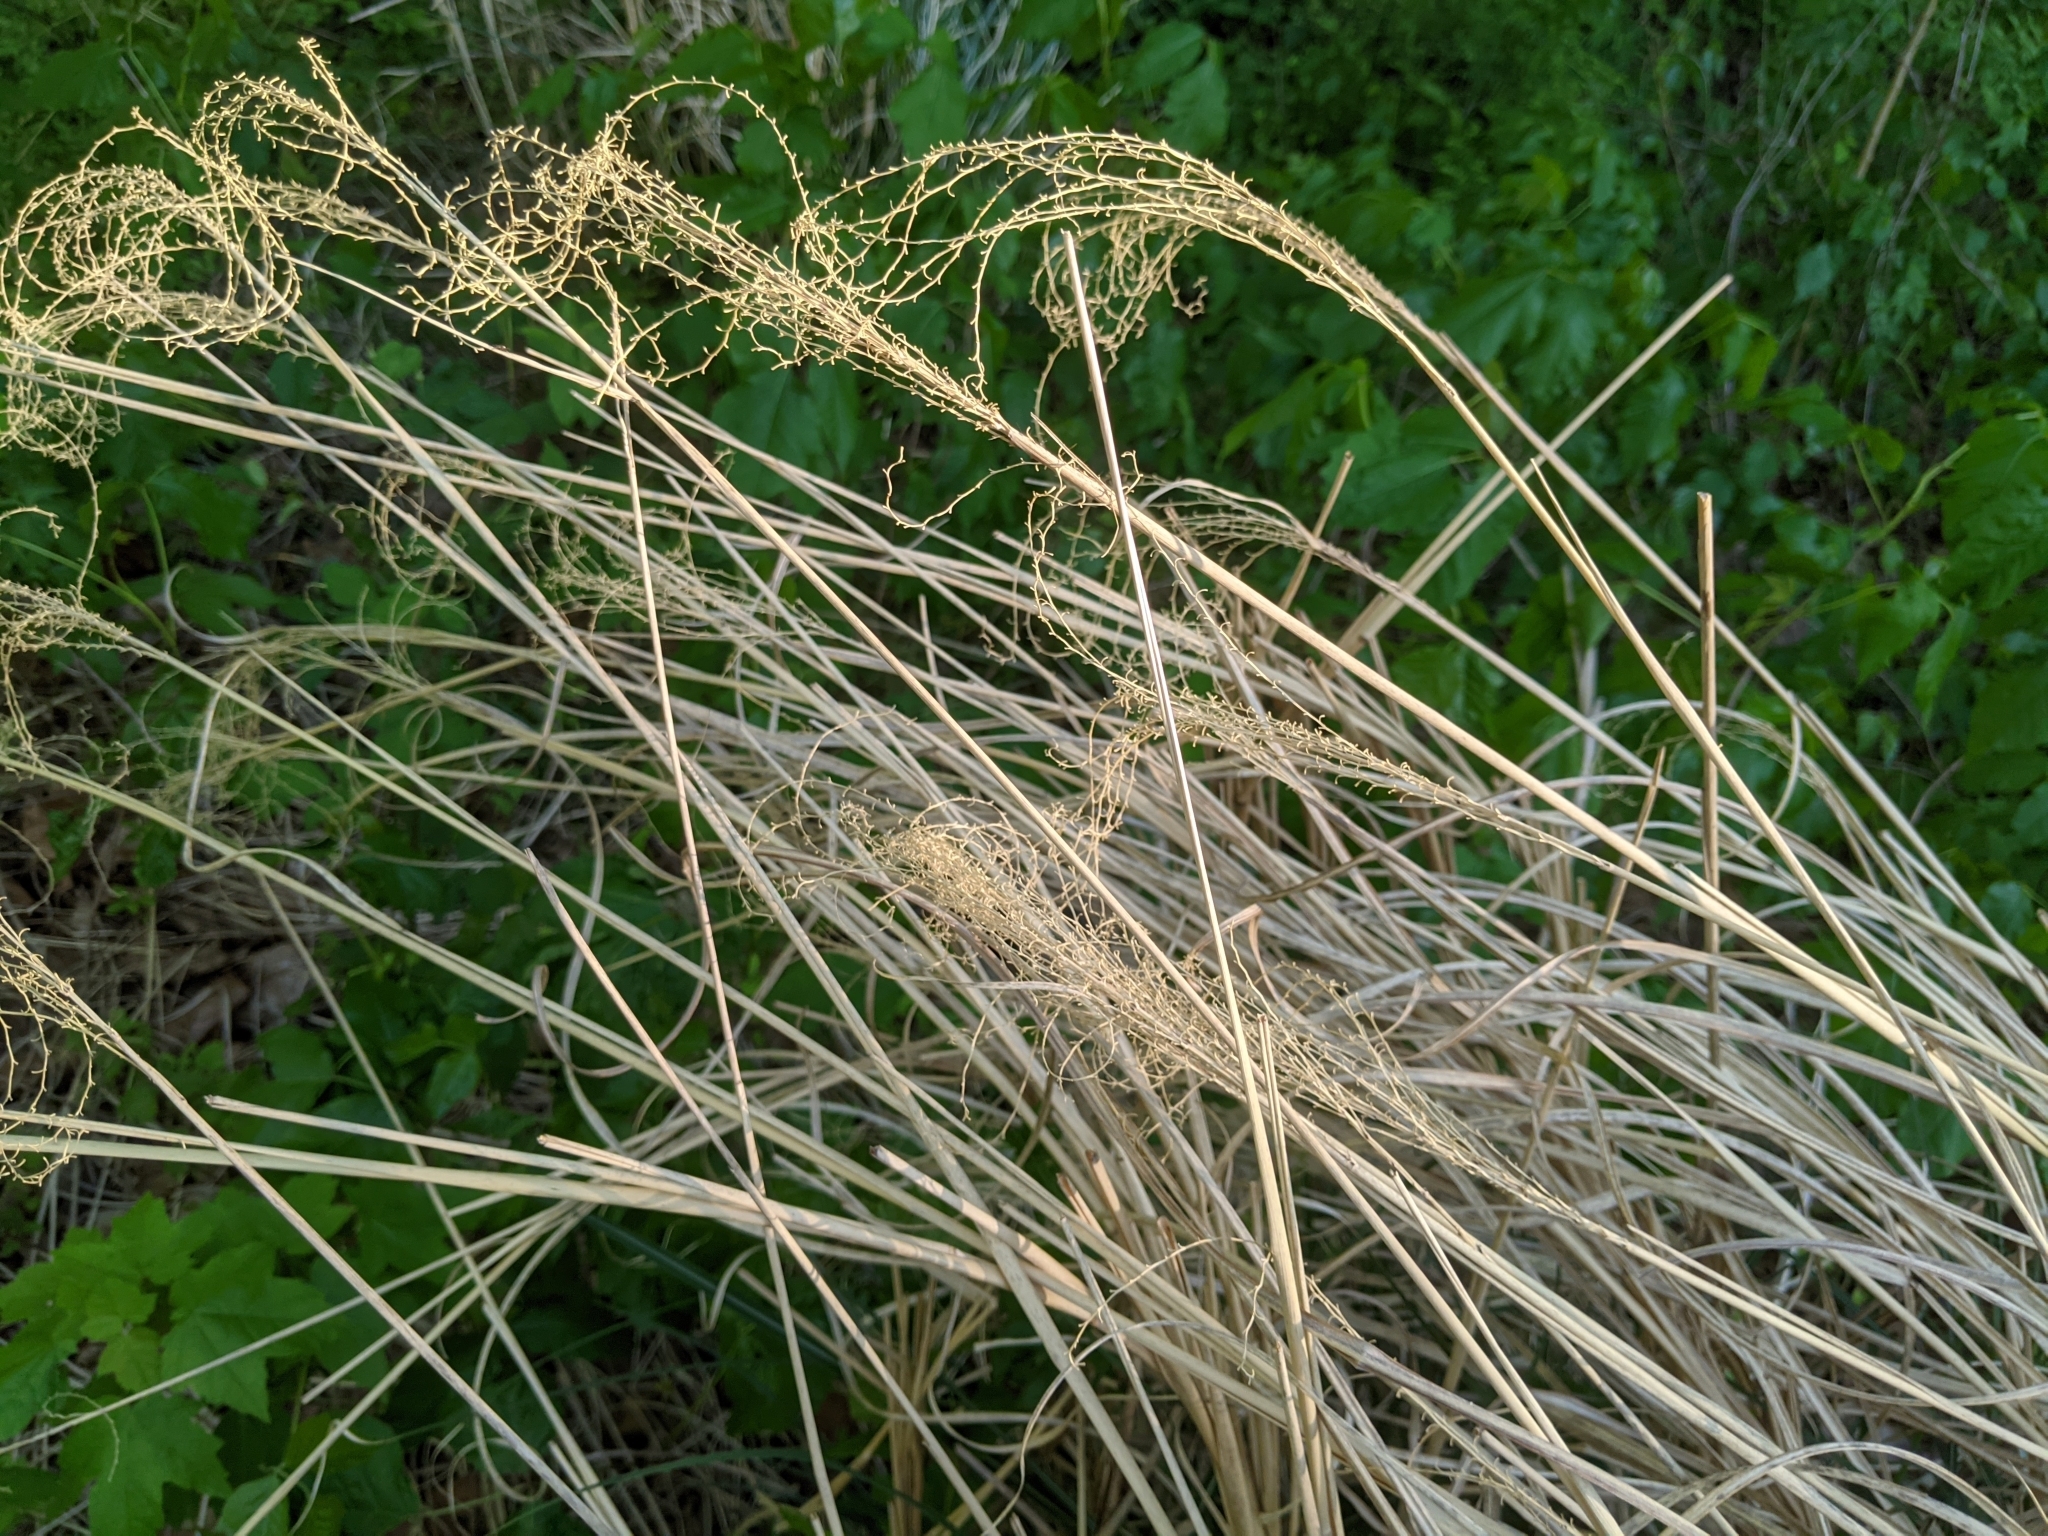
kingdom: Plantae
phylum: Tracheophyta
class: Liliopsida
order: Poales
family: Poaceae
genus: Miscanthus
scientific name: Miscanthus sinensis
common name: Chinese silvergrass
